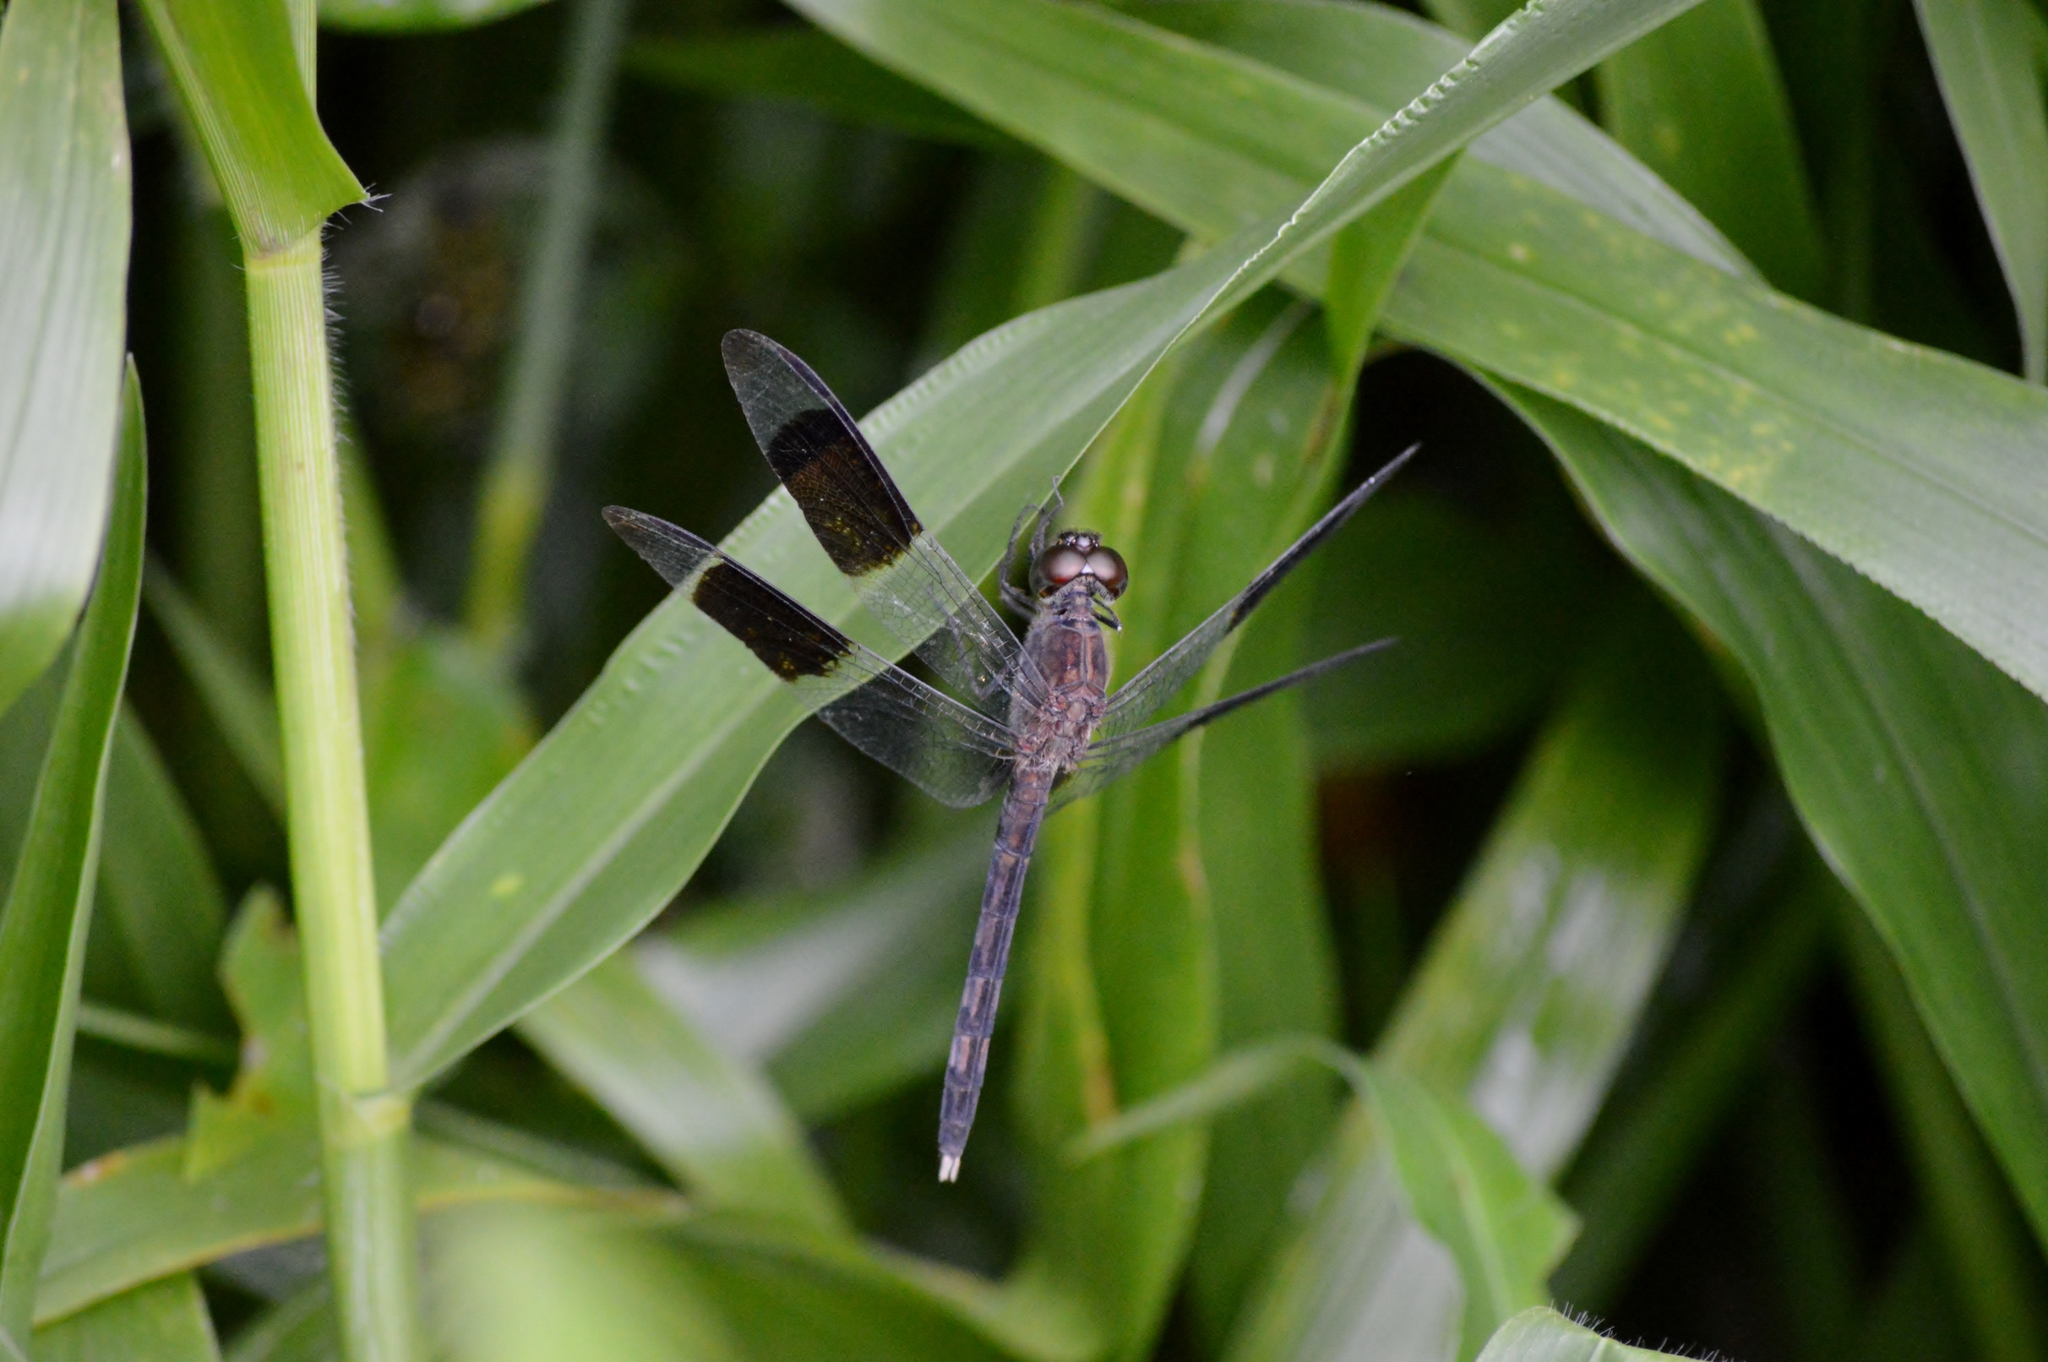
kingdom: Animalia
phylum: Arthropoda
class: Insecta
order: Odonata
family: Libellulidae
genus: Erythrodiplax
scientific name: Erythrodiplax umbrata
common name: Band-winged dragonlet
